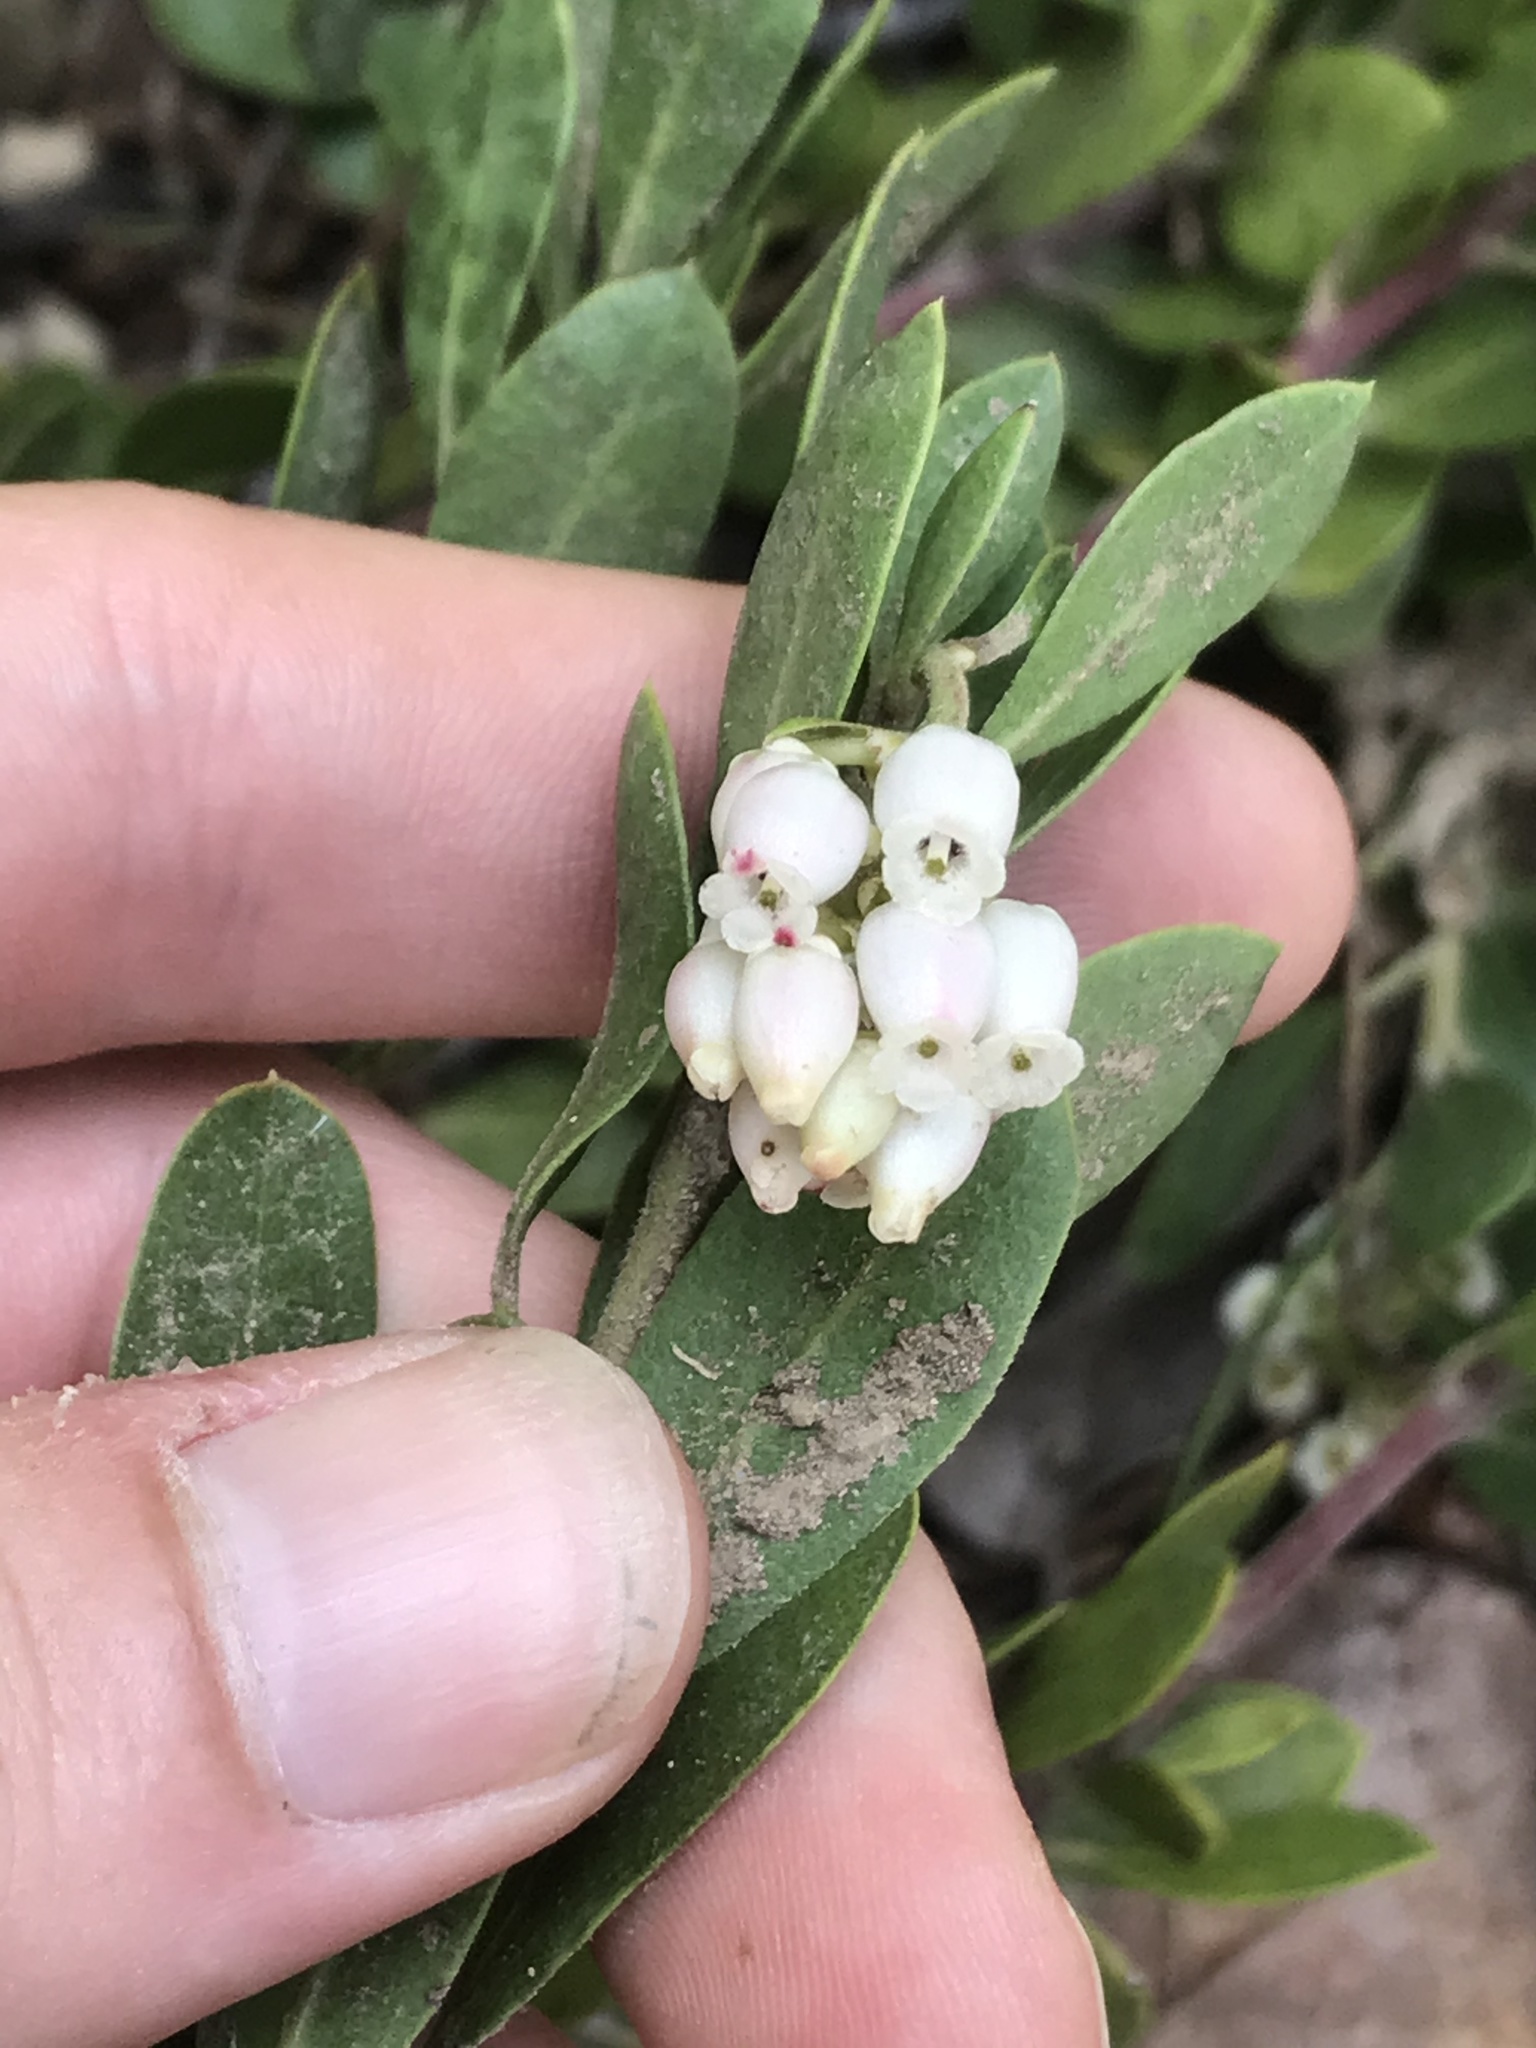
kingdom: Plantae
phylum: Tracheophyta
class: Magnoliopsida
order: Ericales
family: Ericaceae
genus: Arctostaphylos
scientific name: Arctostaphylos nevadensis
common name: Pinemat manzanita
